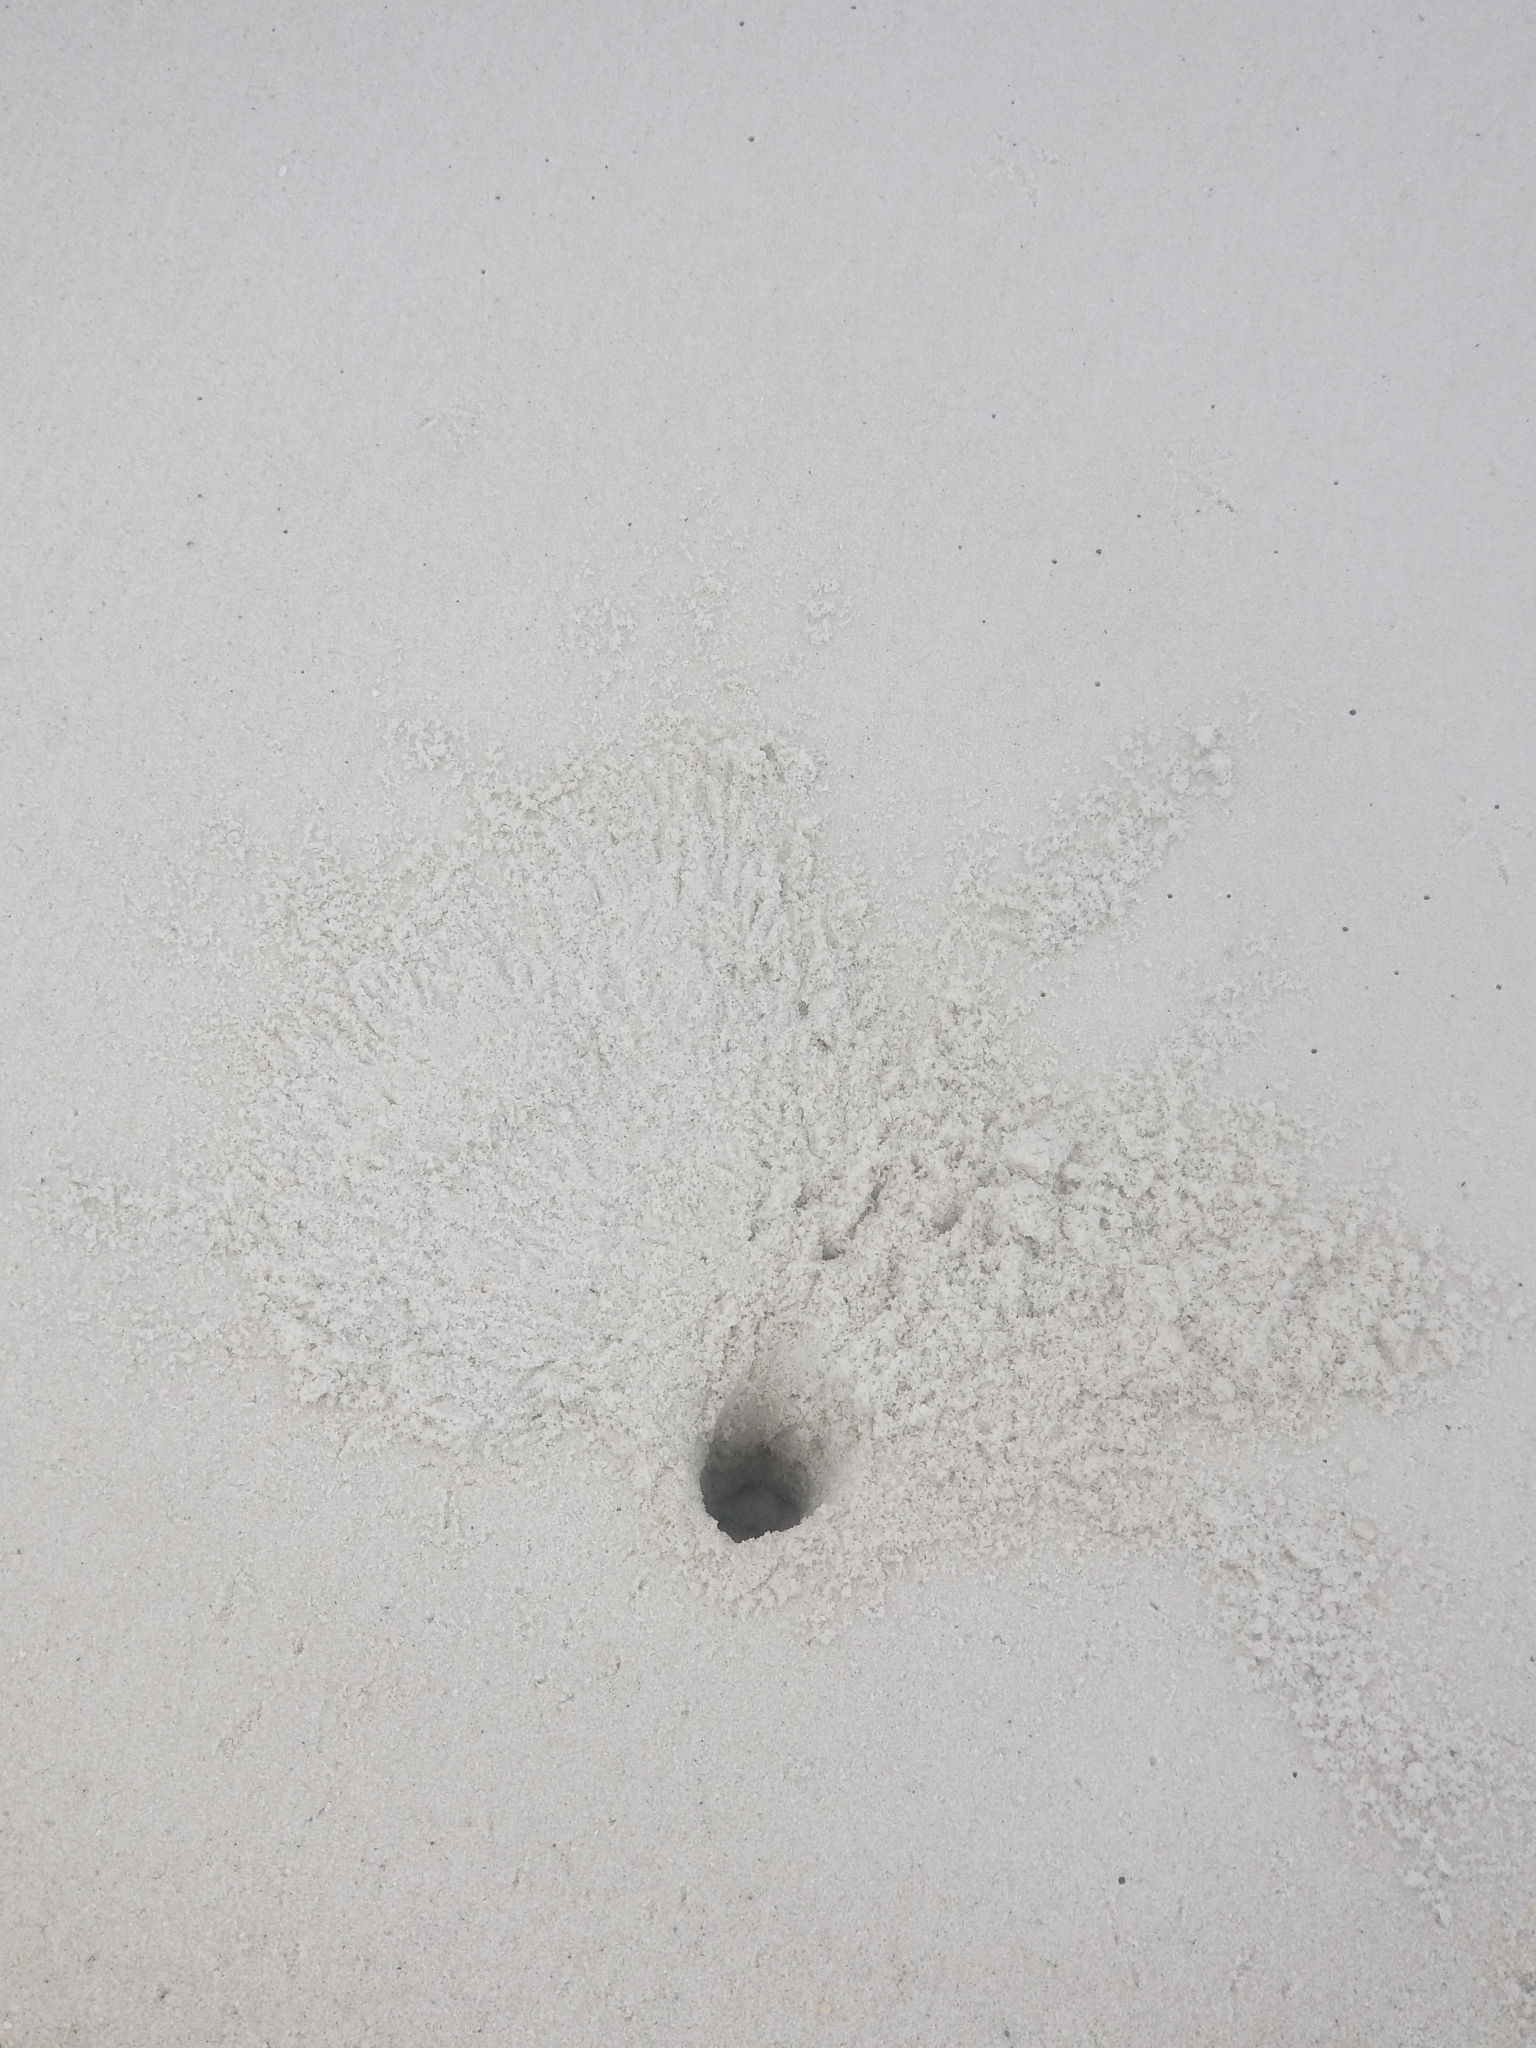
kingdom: Animalia
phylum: Arthropoda
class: Malacostraca
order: Decapoda
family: Ocypodidae
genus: Ocypode
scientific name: Ocypode quadrata
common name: Ghost crab
